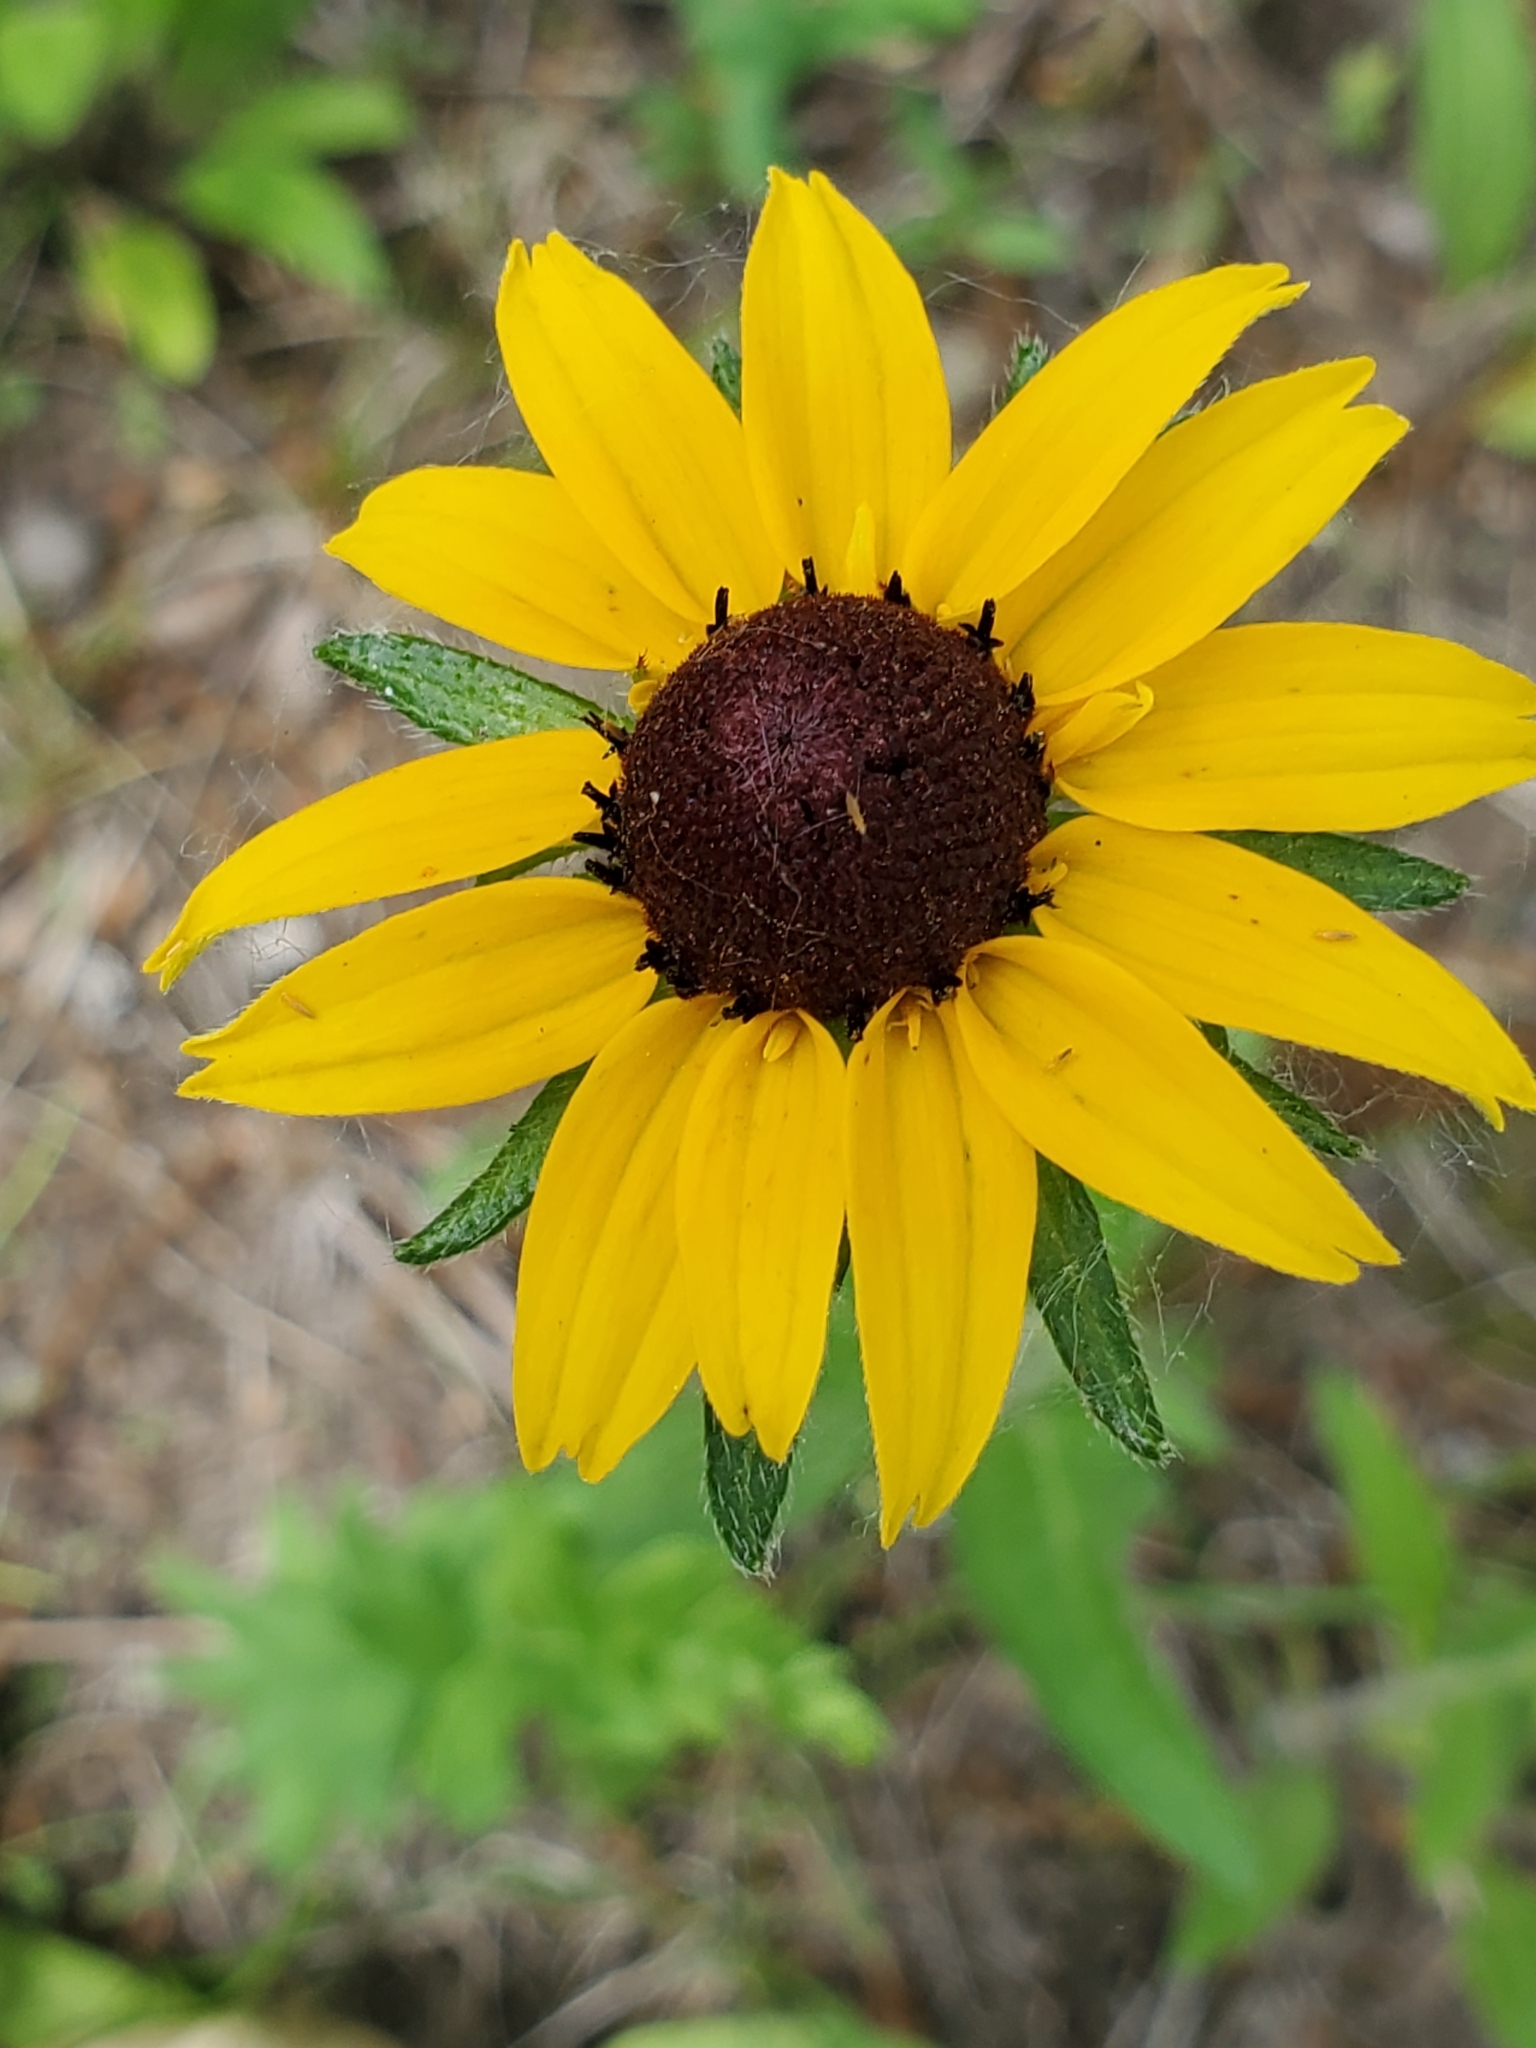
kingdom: Plantae
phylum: Tracheophyta
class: Magnoliopsida
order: Asterales
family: Asteraceae
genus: Rudbeckia
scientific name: Rudbeckia hirta
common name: Black-eyed-susan
